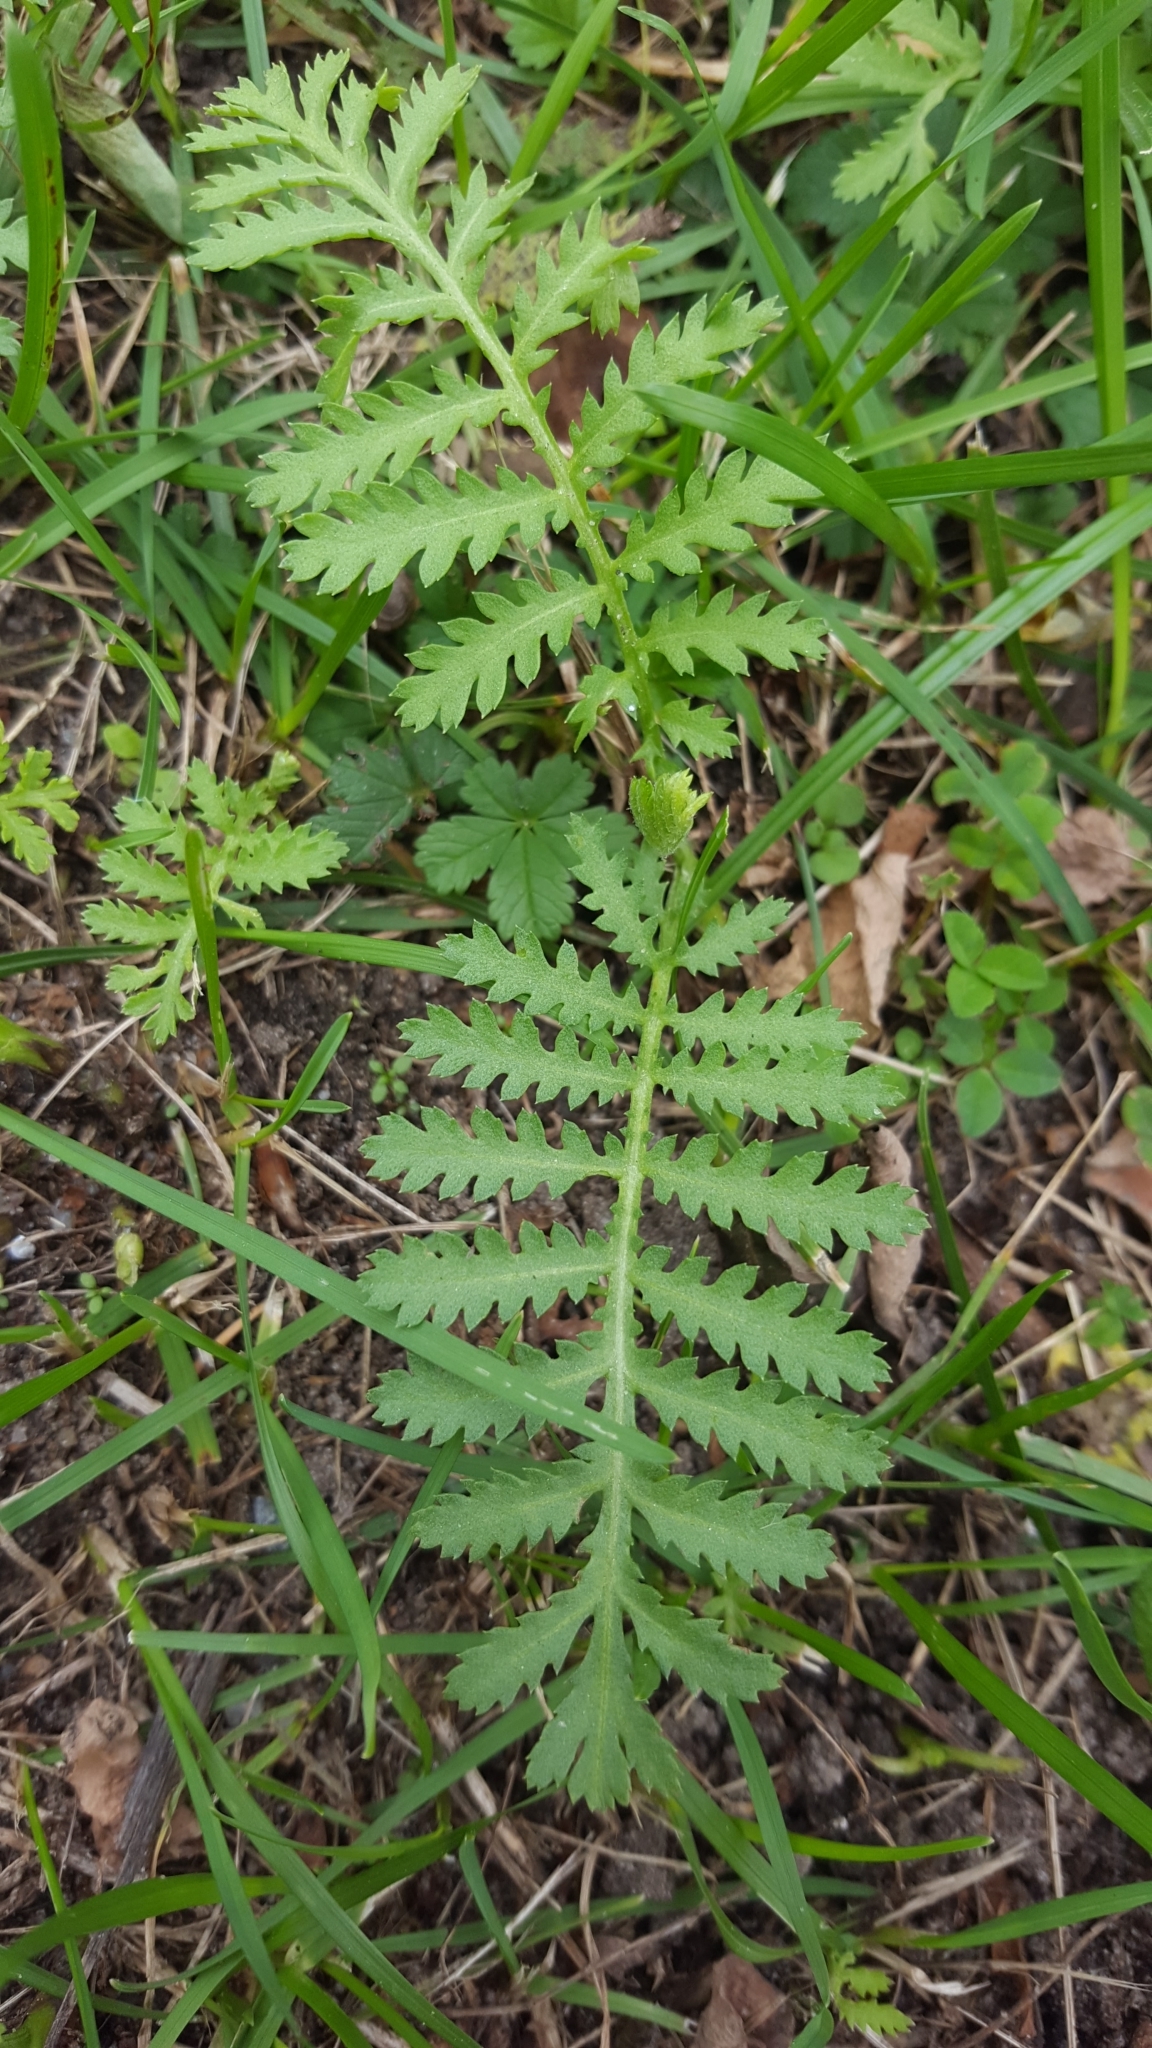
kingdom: Plantae
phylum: Tracheophyta
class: Magnoliopsida
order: Asterales
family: Asteraceae
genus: Tanacetum
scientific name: Tanacetum vulgare
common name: Common tansy
